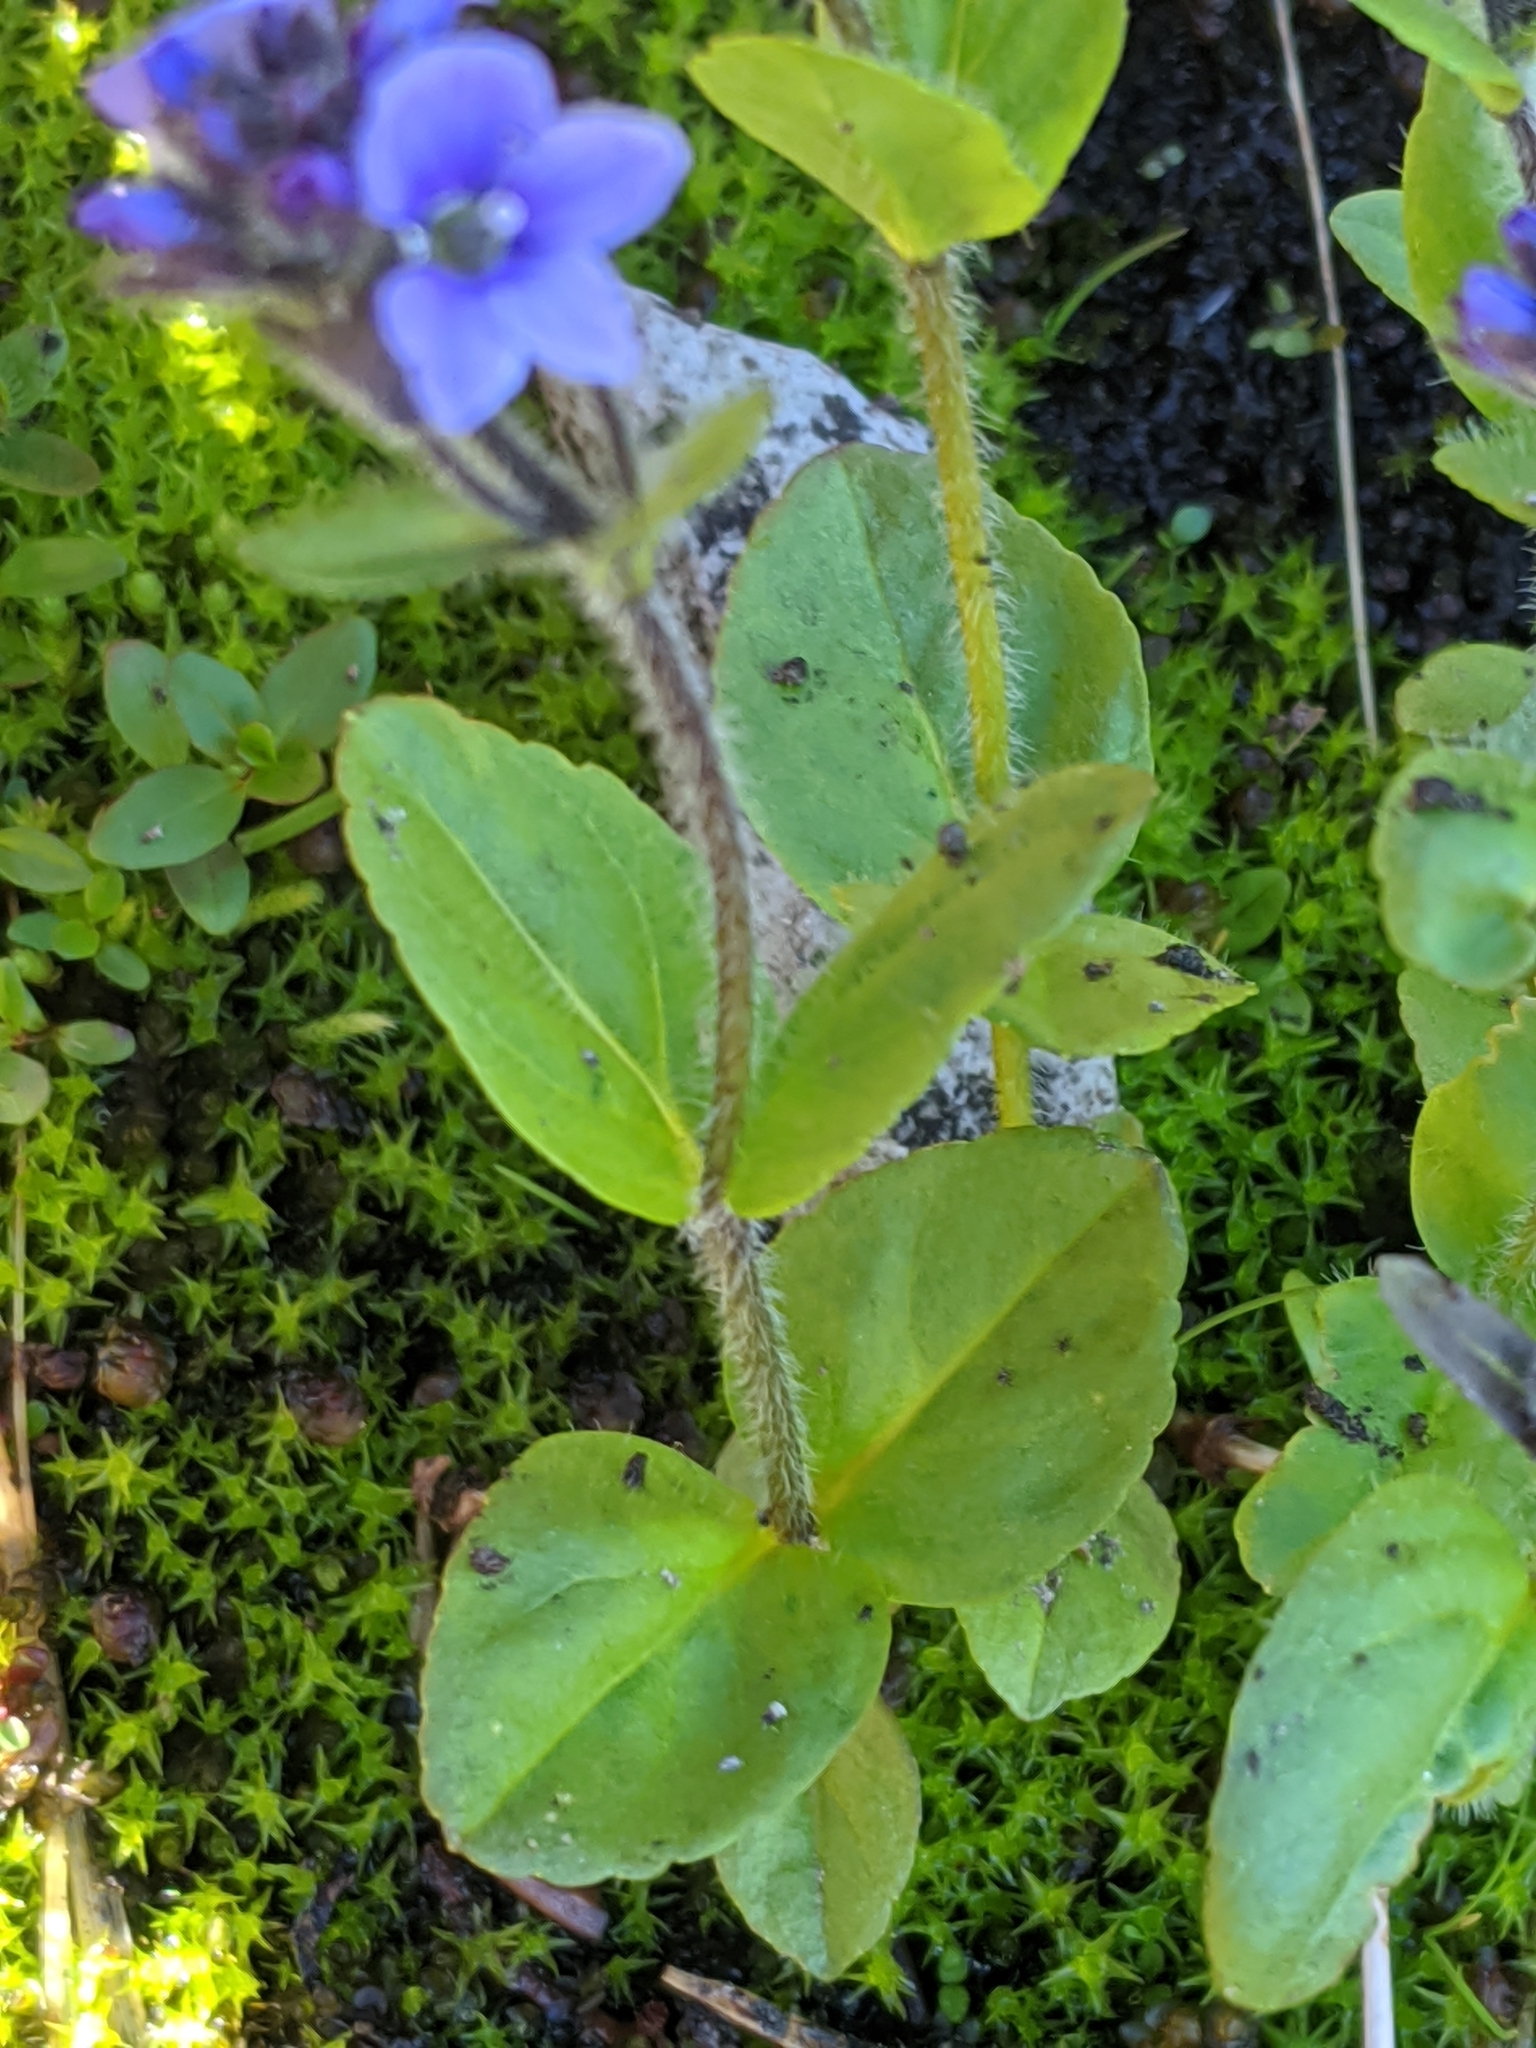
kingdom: Plantae
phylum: Tracheophyta
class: Magnoliopsida
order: Lamiales
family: Plantaginaceae
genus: Veronica
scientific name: Veronica wormskjoldii
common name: American alpine speedwell
